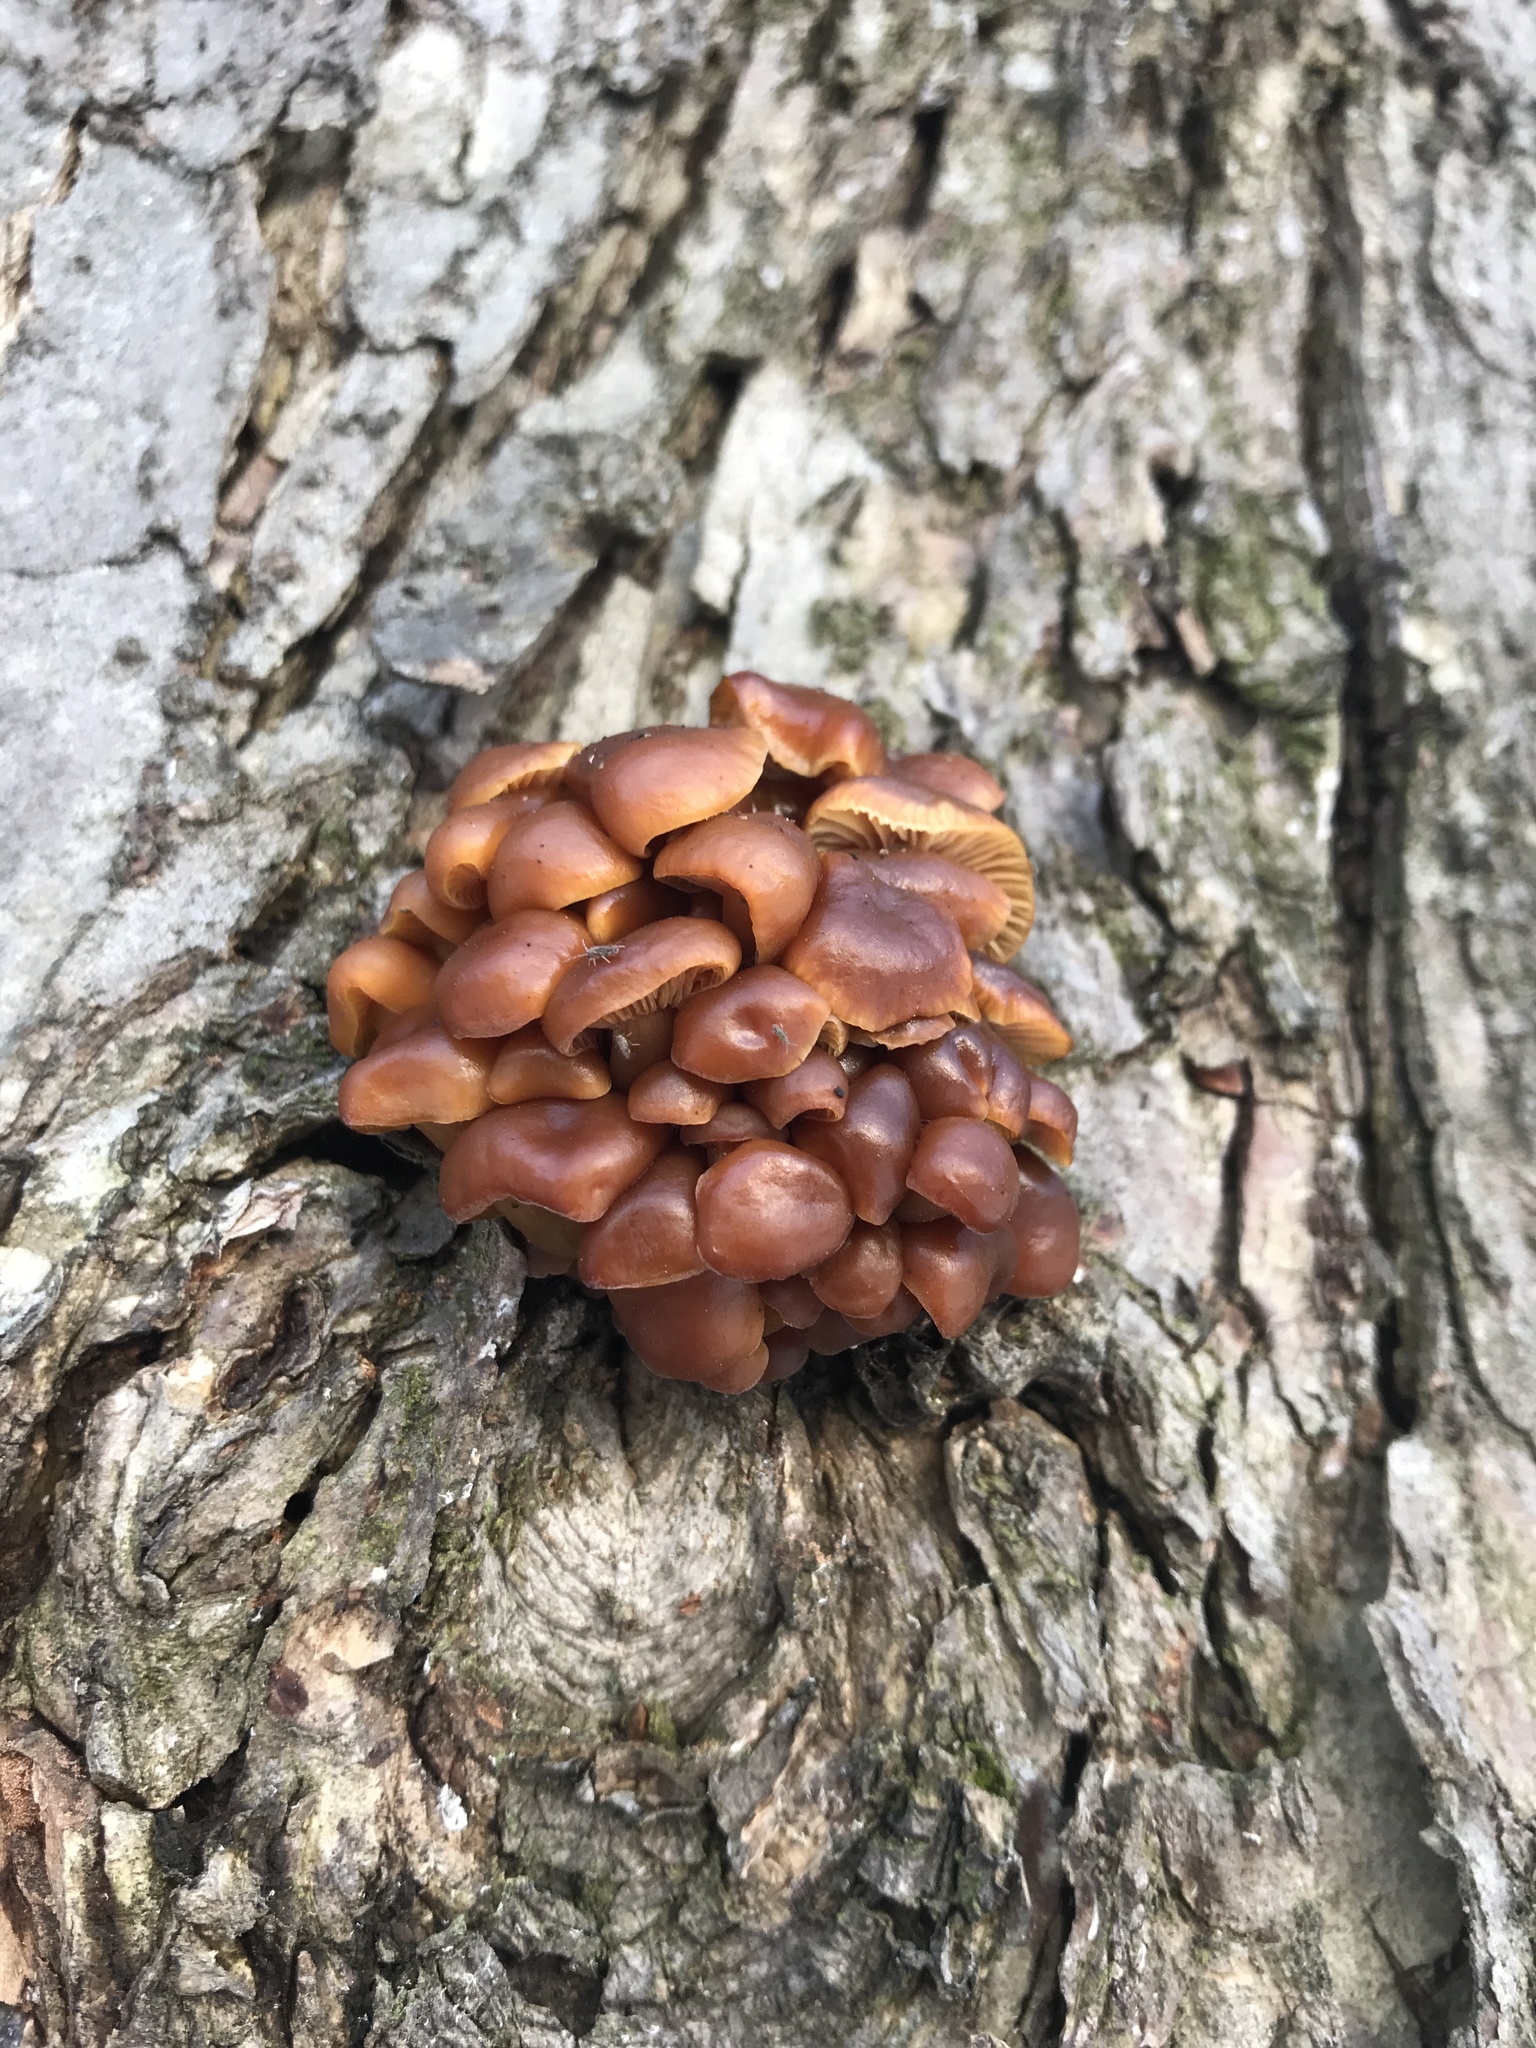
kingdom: Fungi
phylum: Basidiomycota
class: Agaricomycetes
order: Agaricales
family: Physalacriaceae
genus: Flammulina
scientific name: Flammulina
